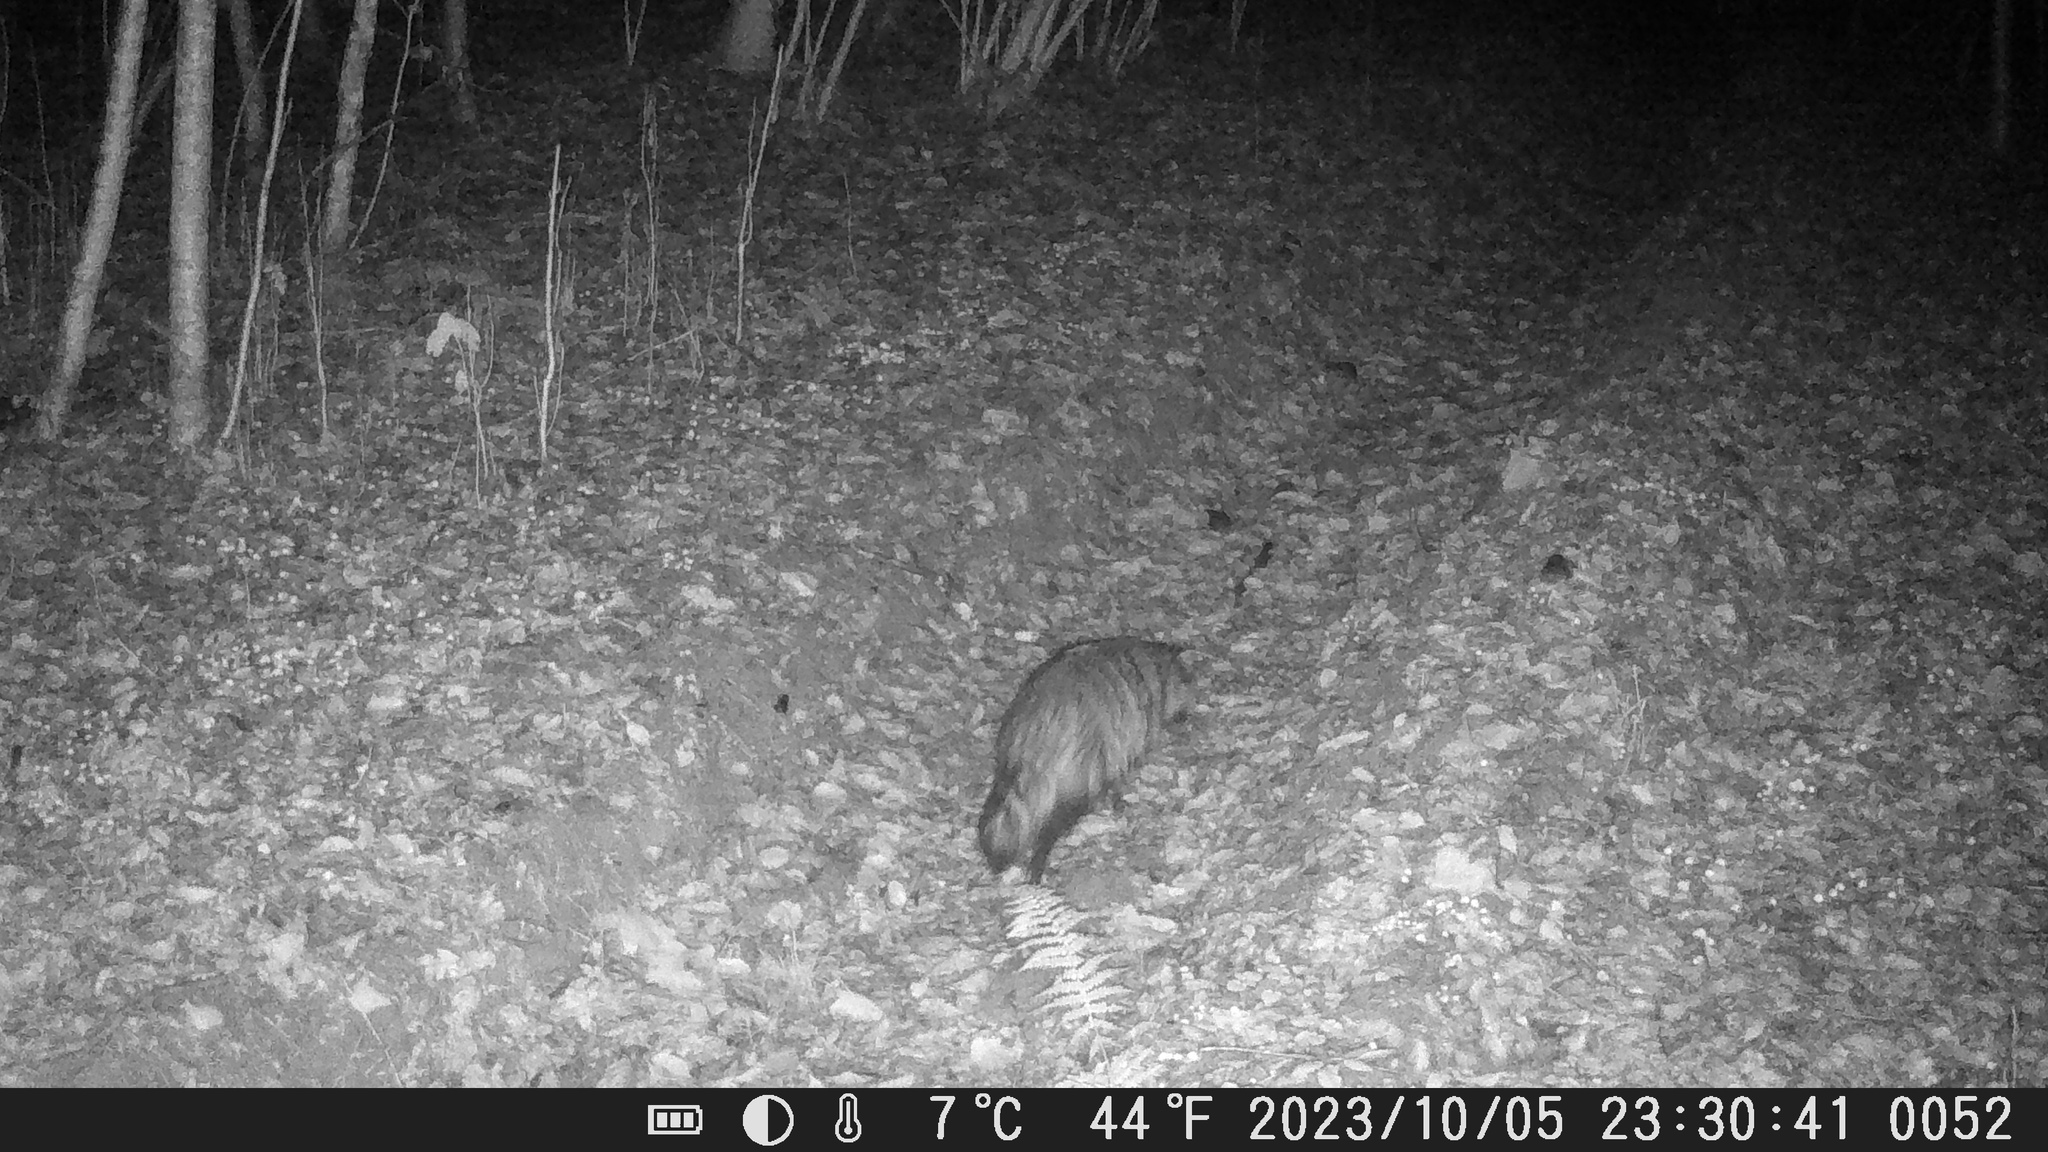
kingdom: Animalia
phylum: Chordata
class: Mammalia
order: Carnivora
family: Canidae
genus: Nyctereutes
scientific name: Nyctereutes procyonoides
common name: Raccoon dog
